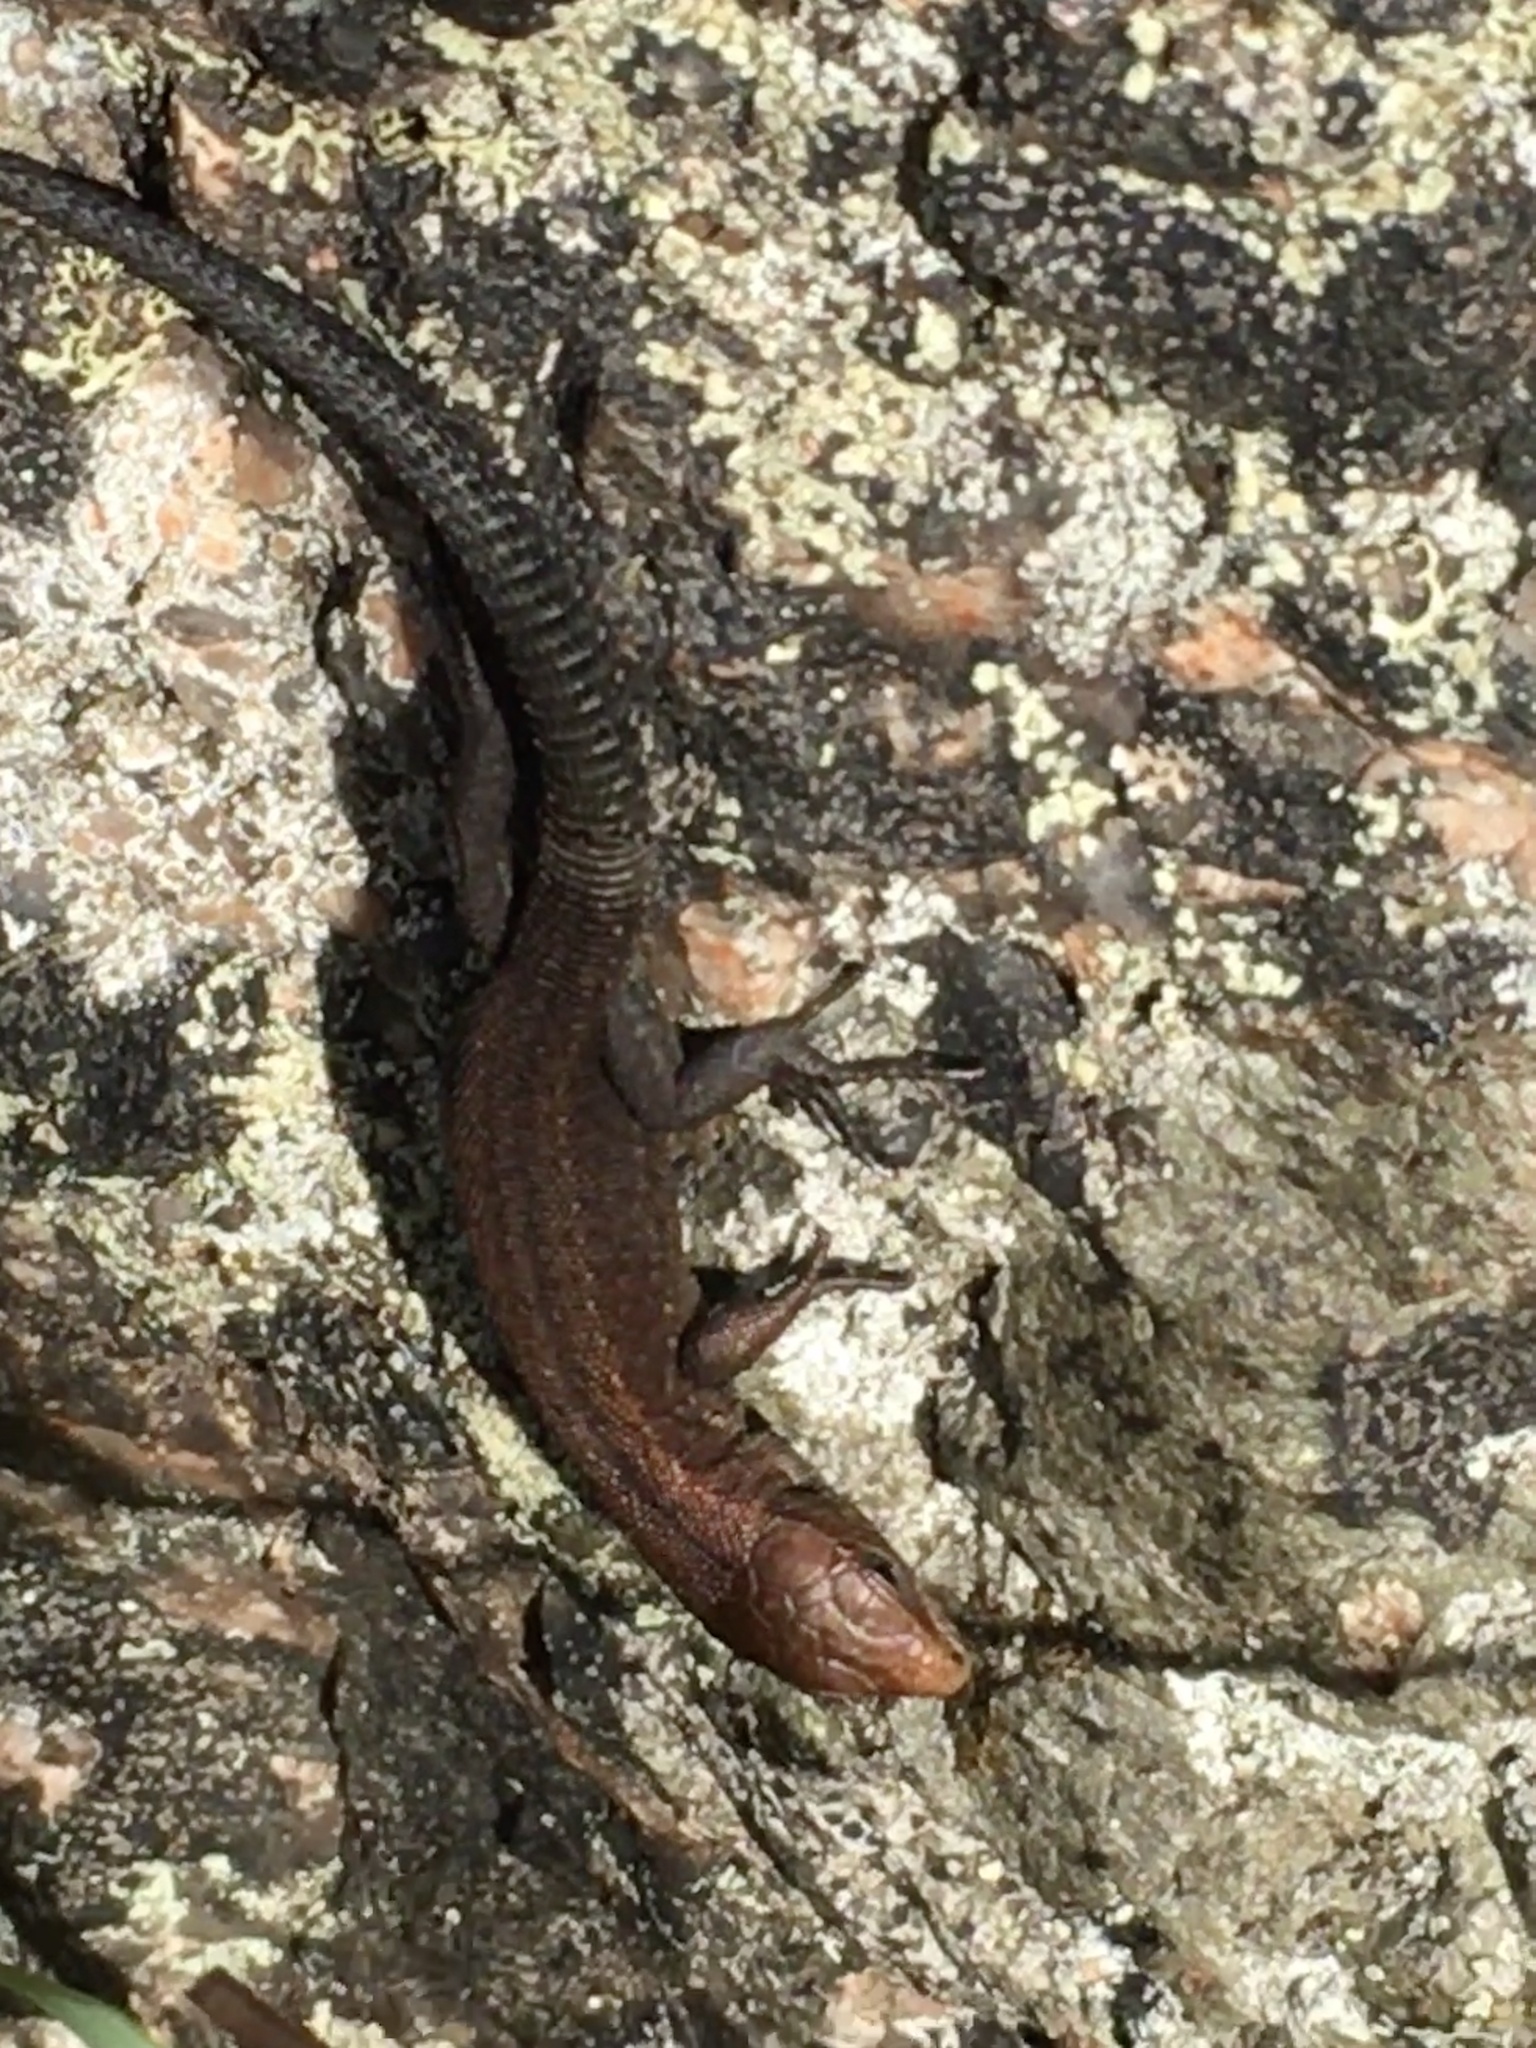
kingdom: Animalia
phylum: Chordata
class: Squamata
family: Lacertidae
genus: Zootoca
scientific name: Zootoca vivipara
